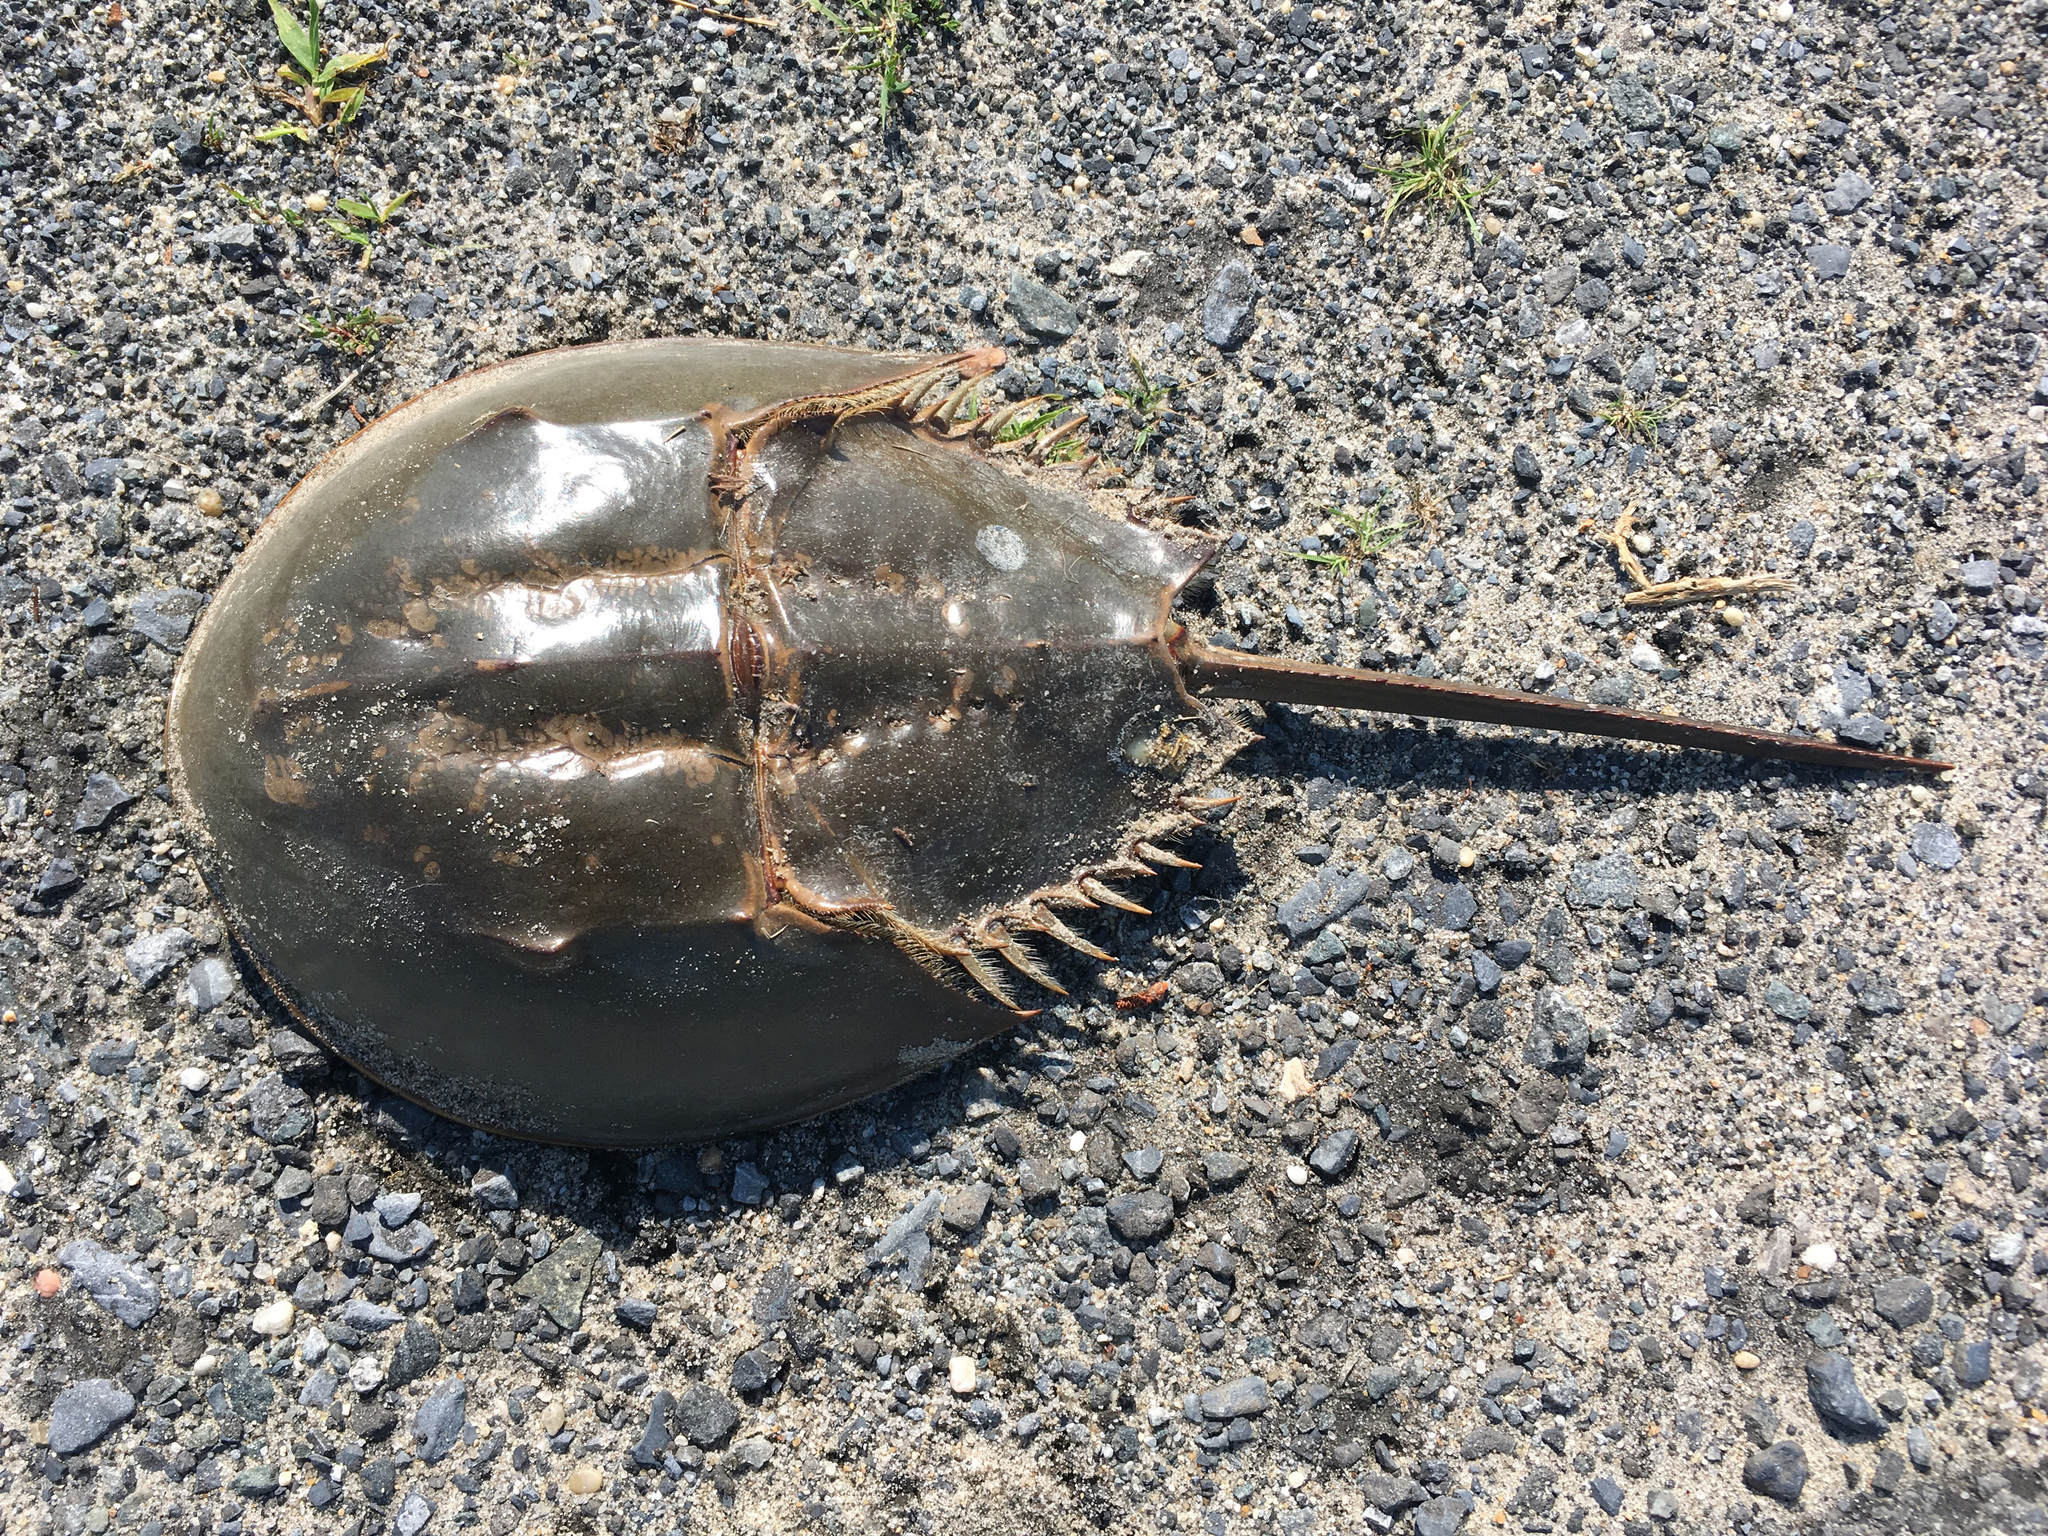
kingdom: Animalia
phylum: Arthropoda
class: Merostomata
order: Xiphosurida
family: Limulidae
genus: Limulus
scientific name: Limulus polyphemus
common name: Horseshoe crab
